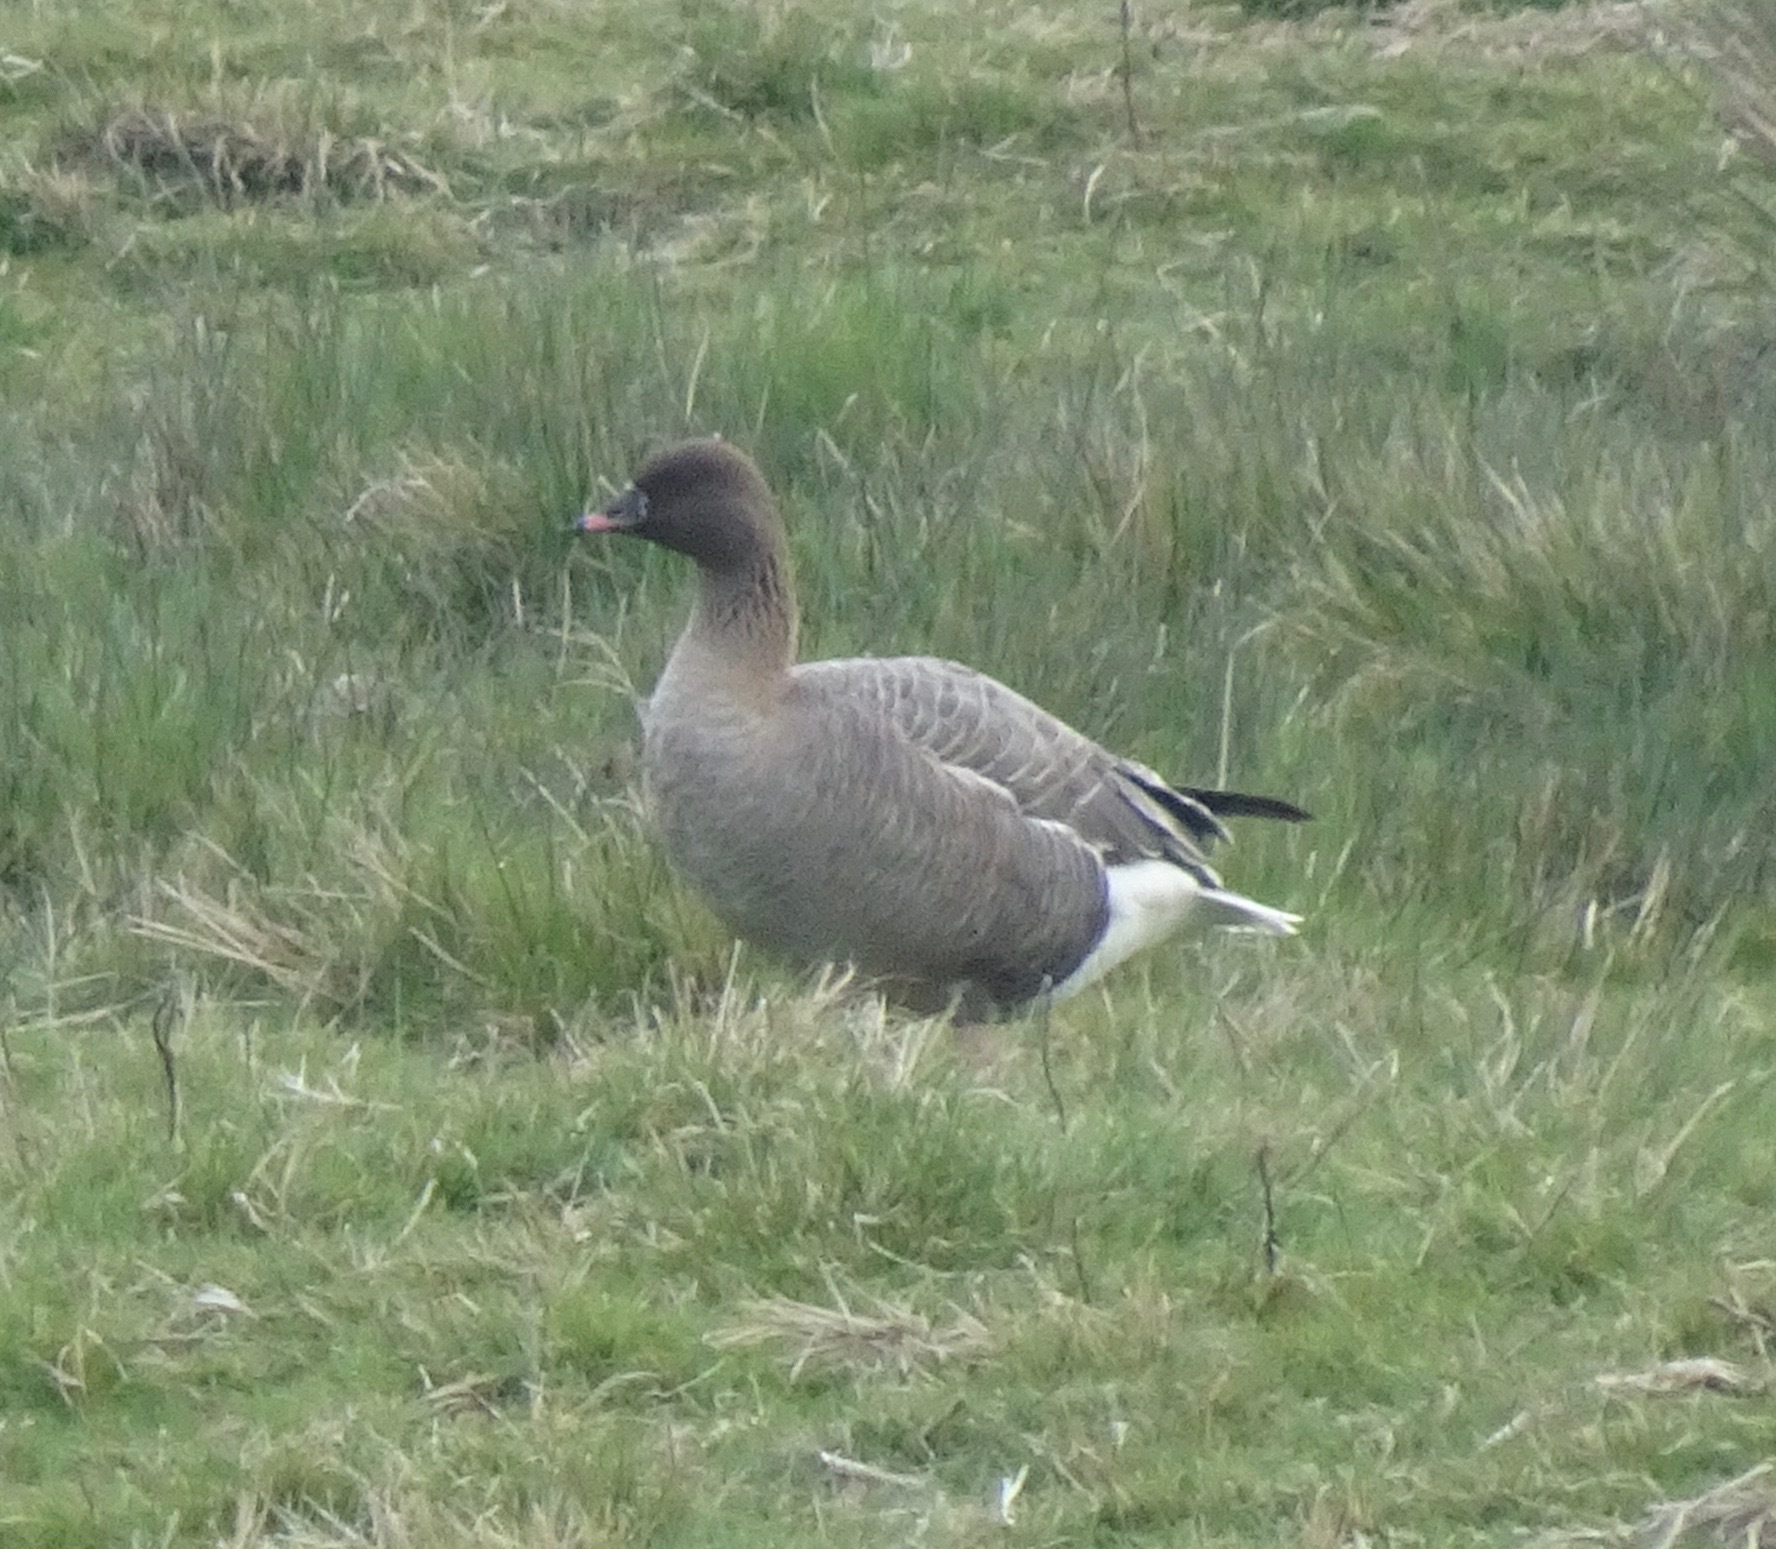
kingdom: Animalia
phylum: Chordata
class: Aves
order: Anseriformes
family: Anatidae
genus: Anser
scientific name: Anser brachyrhynchus
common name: Pink-footed goose
